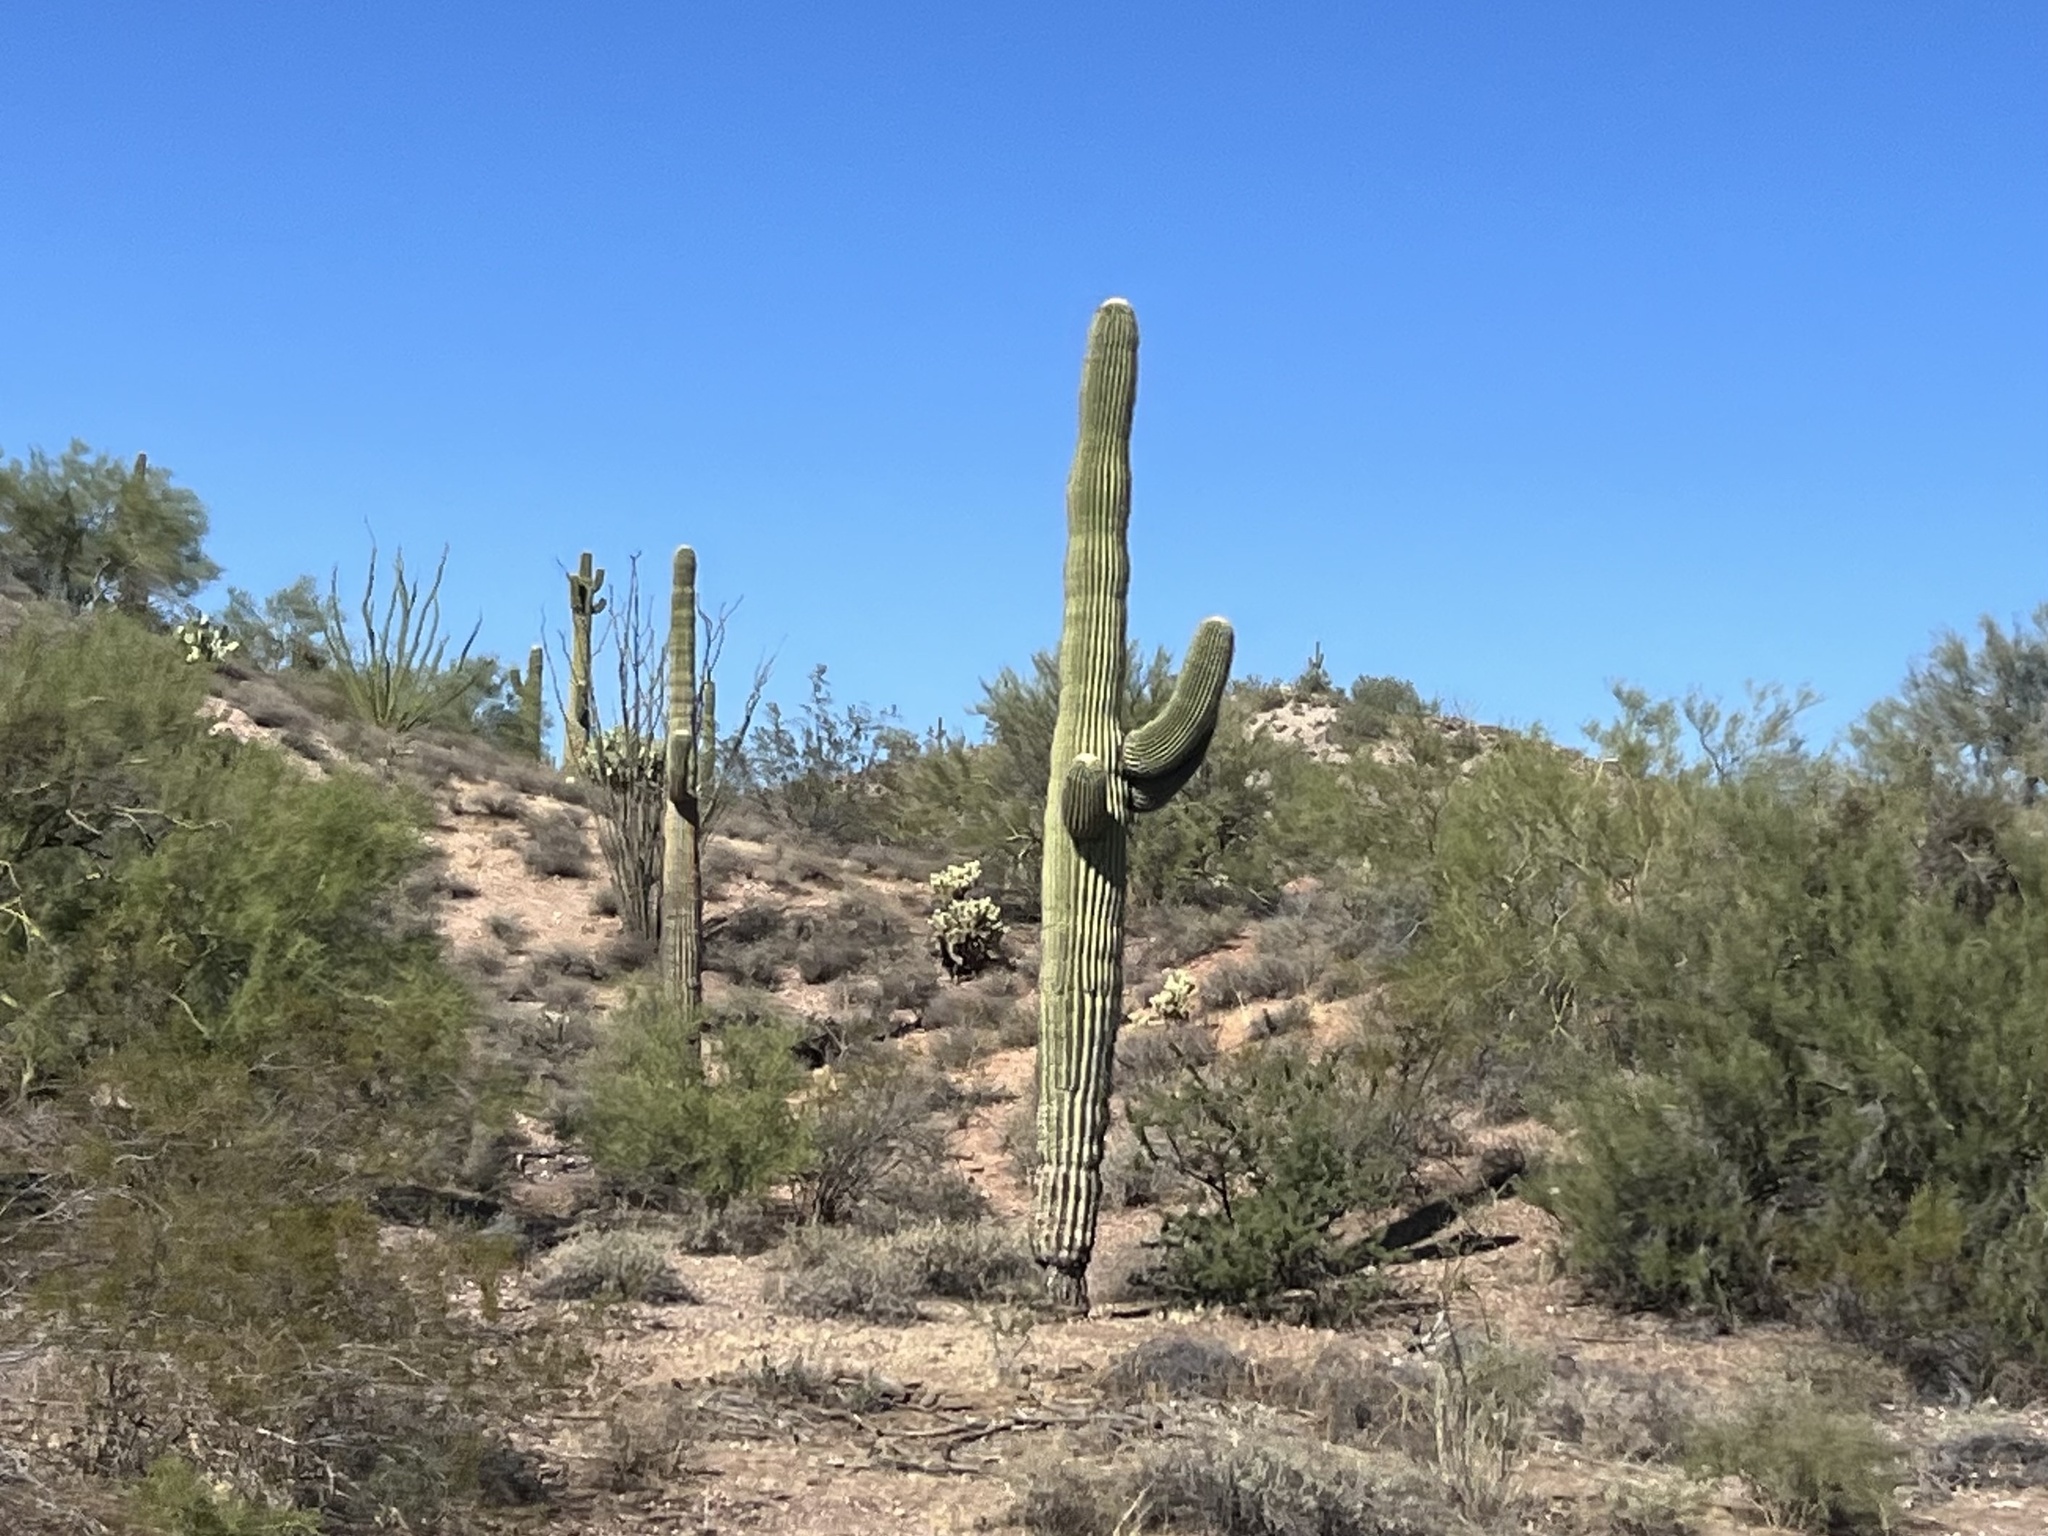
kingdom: Plantae
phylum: Tracheophyta
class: Magnoliopsida
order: Caryophyllales
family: Cactaceae
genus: Carnegiea
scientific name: Carnegiea gigantea
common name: Saguaro
